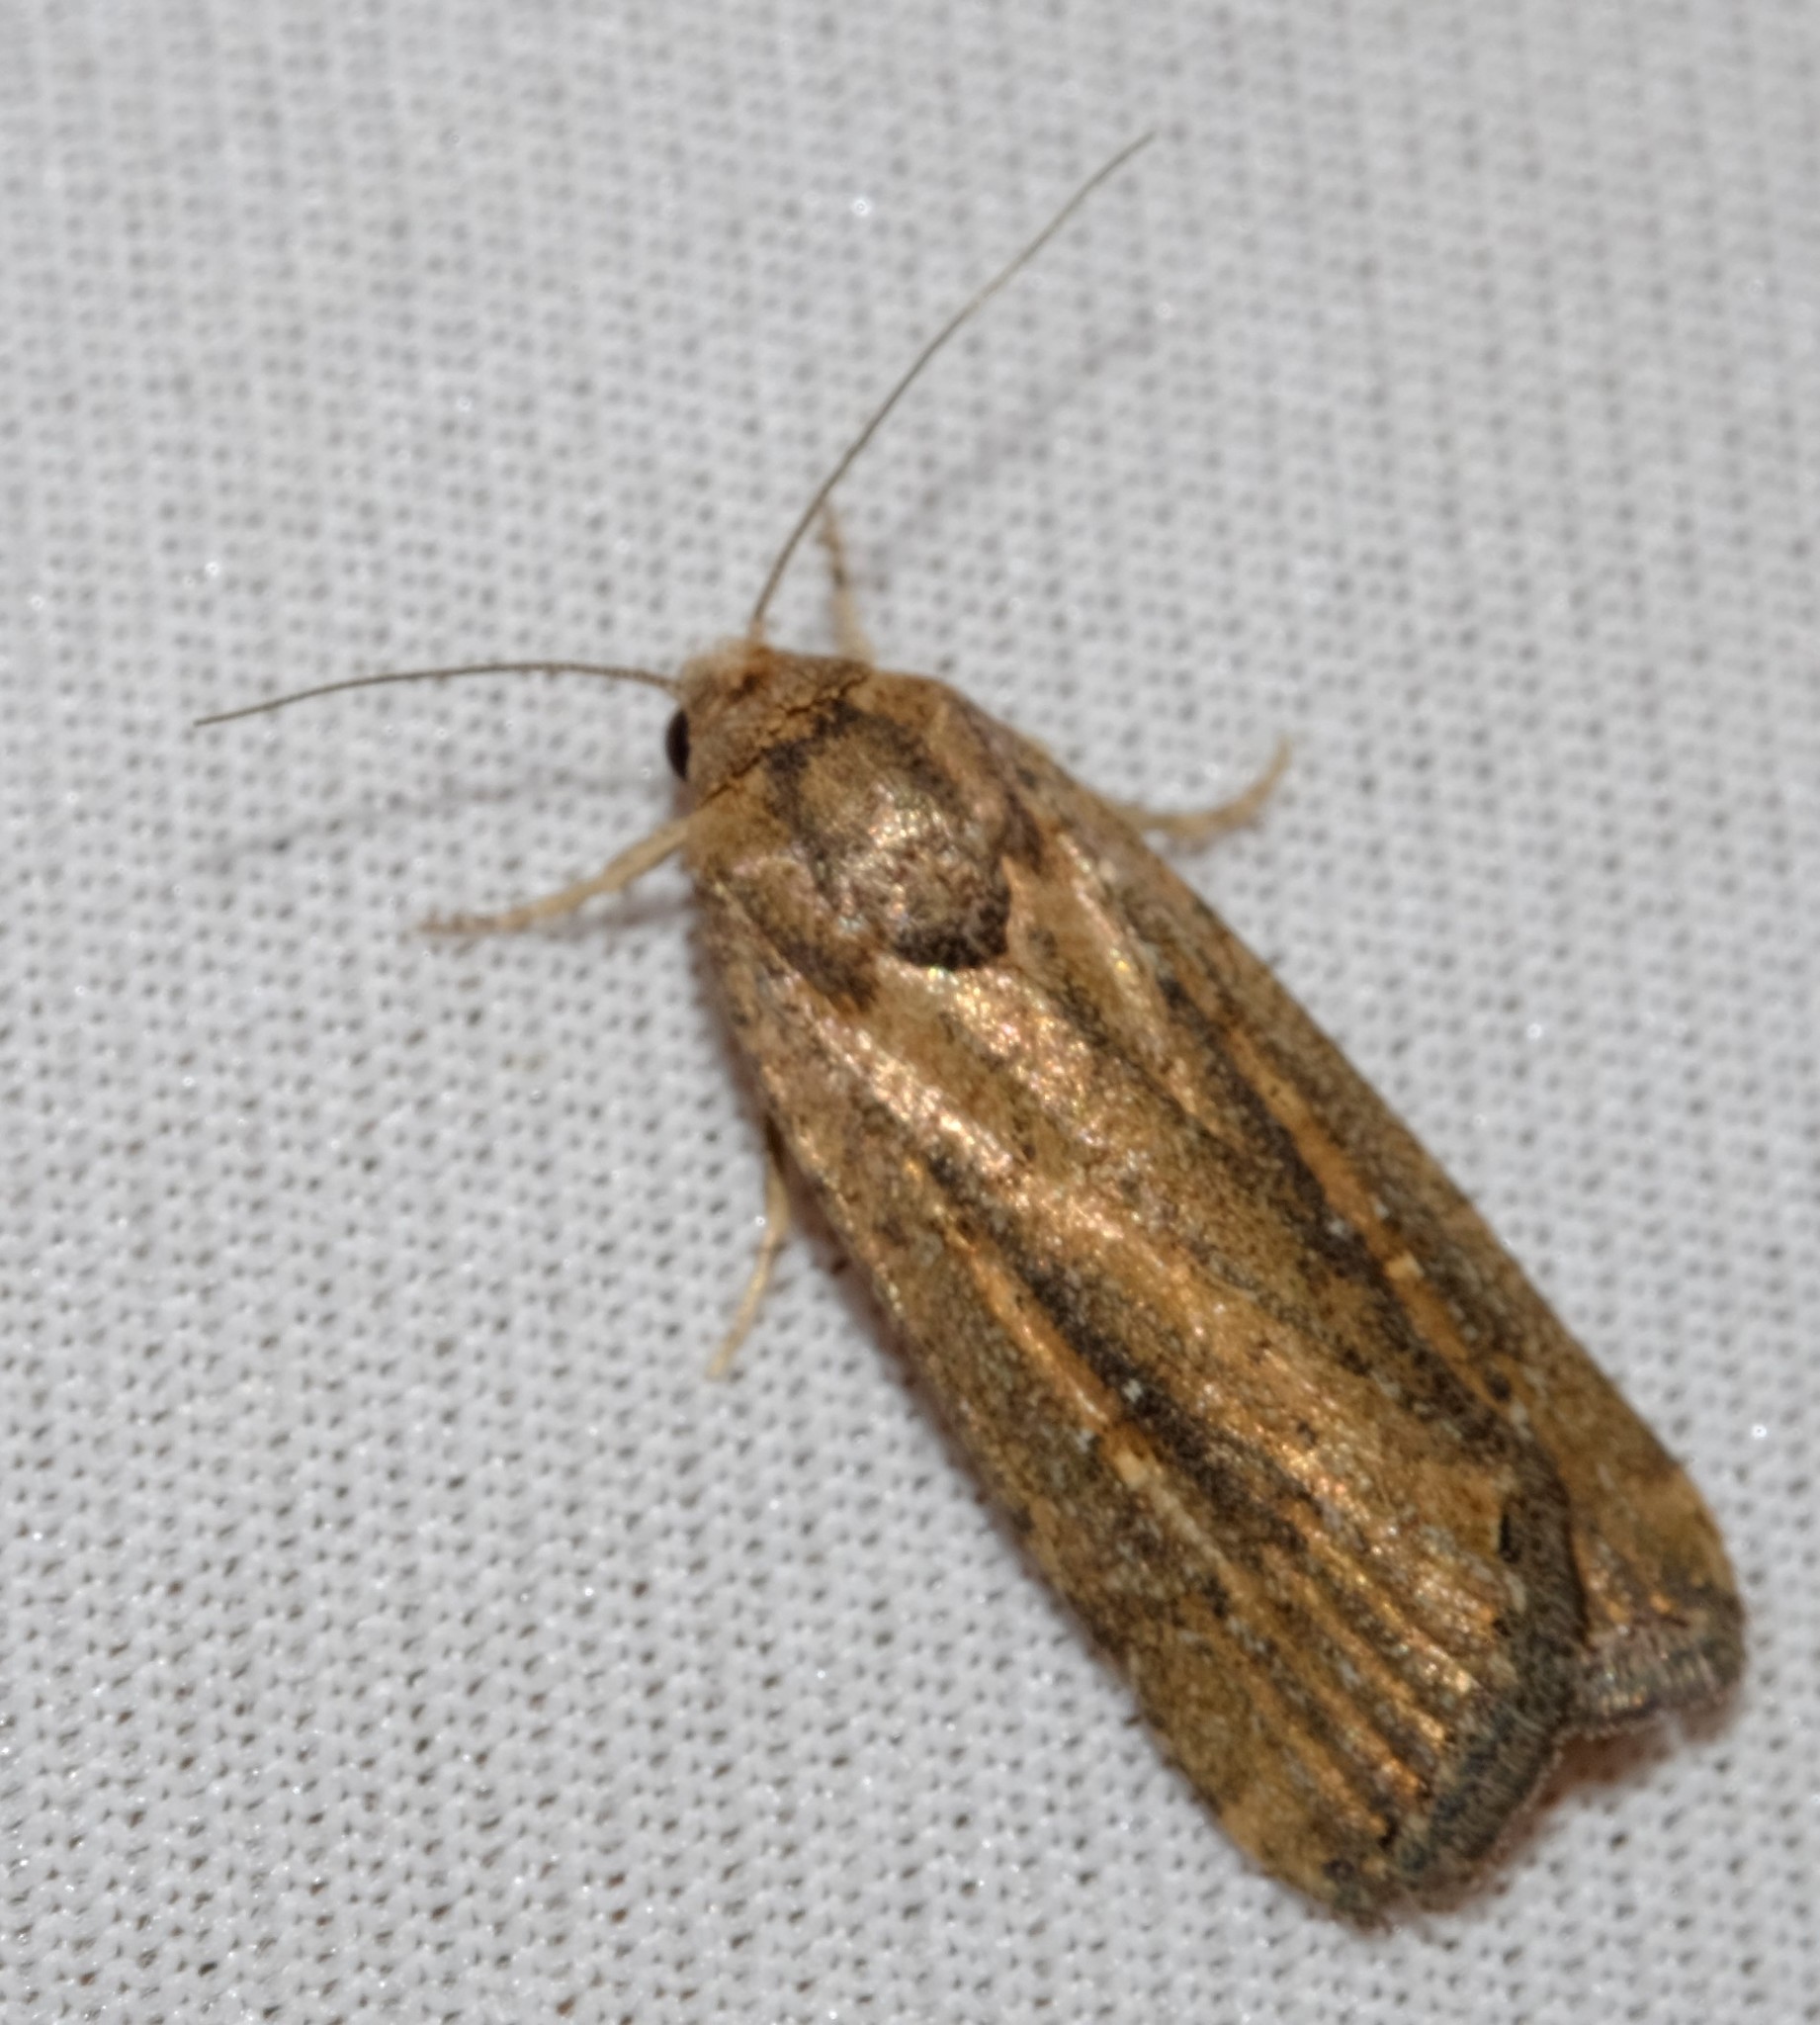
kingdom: Animalia
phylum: Arthropoda
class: Insecta
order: Lepidoptera
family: Noctuidae
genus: Athetis
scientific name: Athetis tenuis
